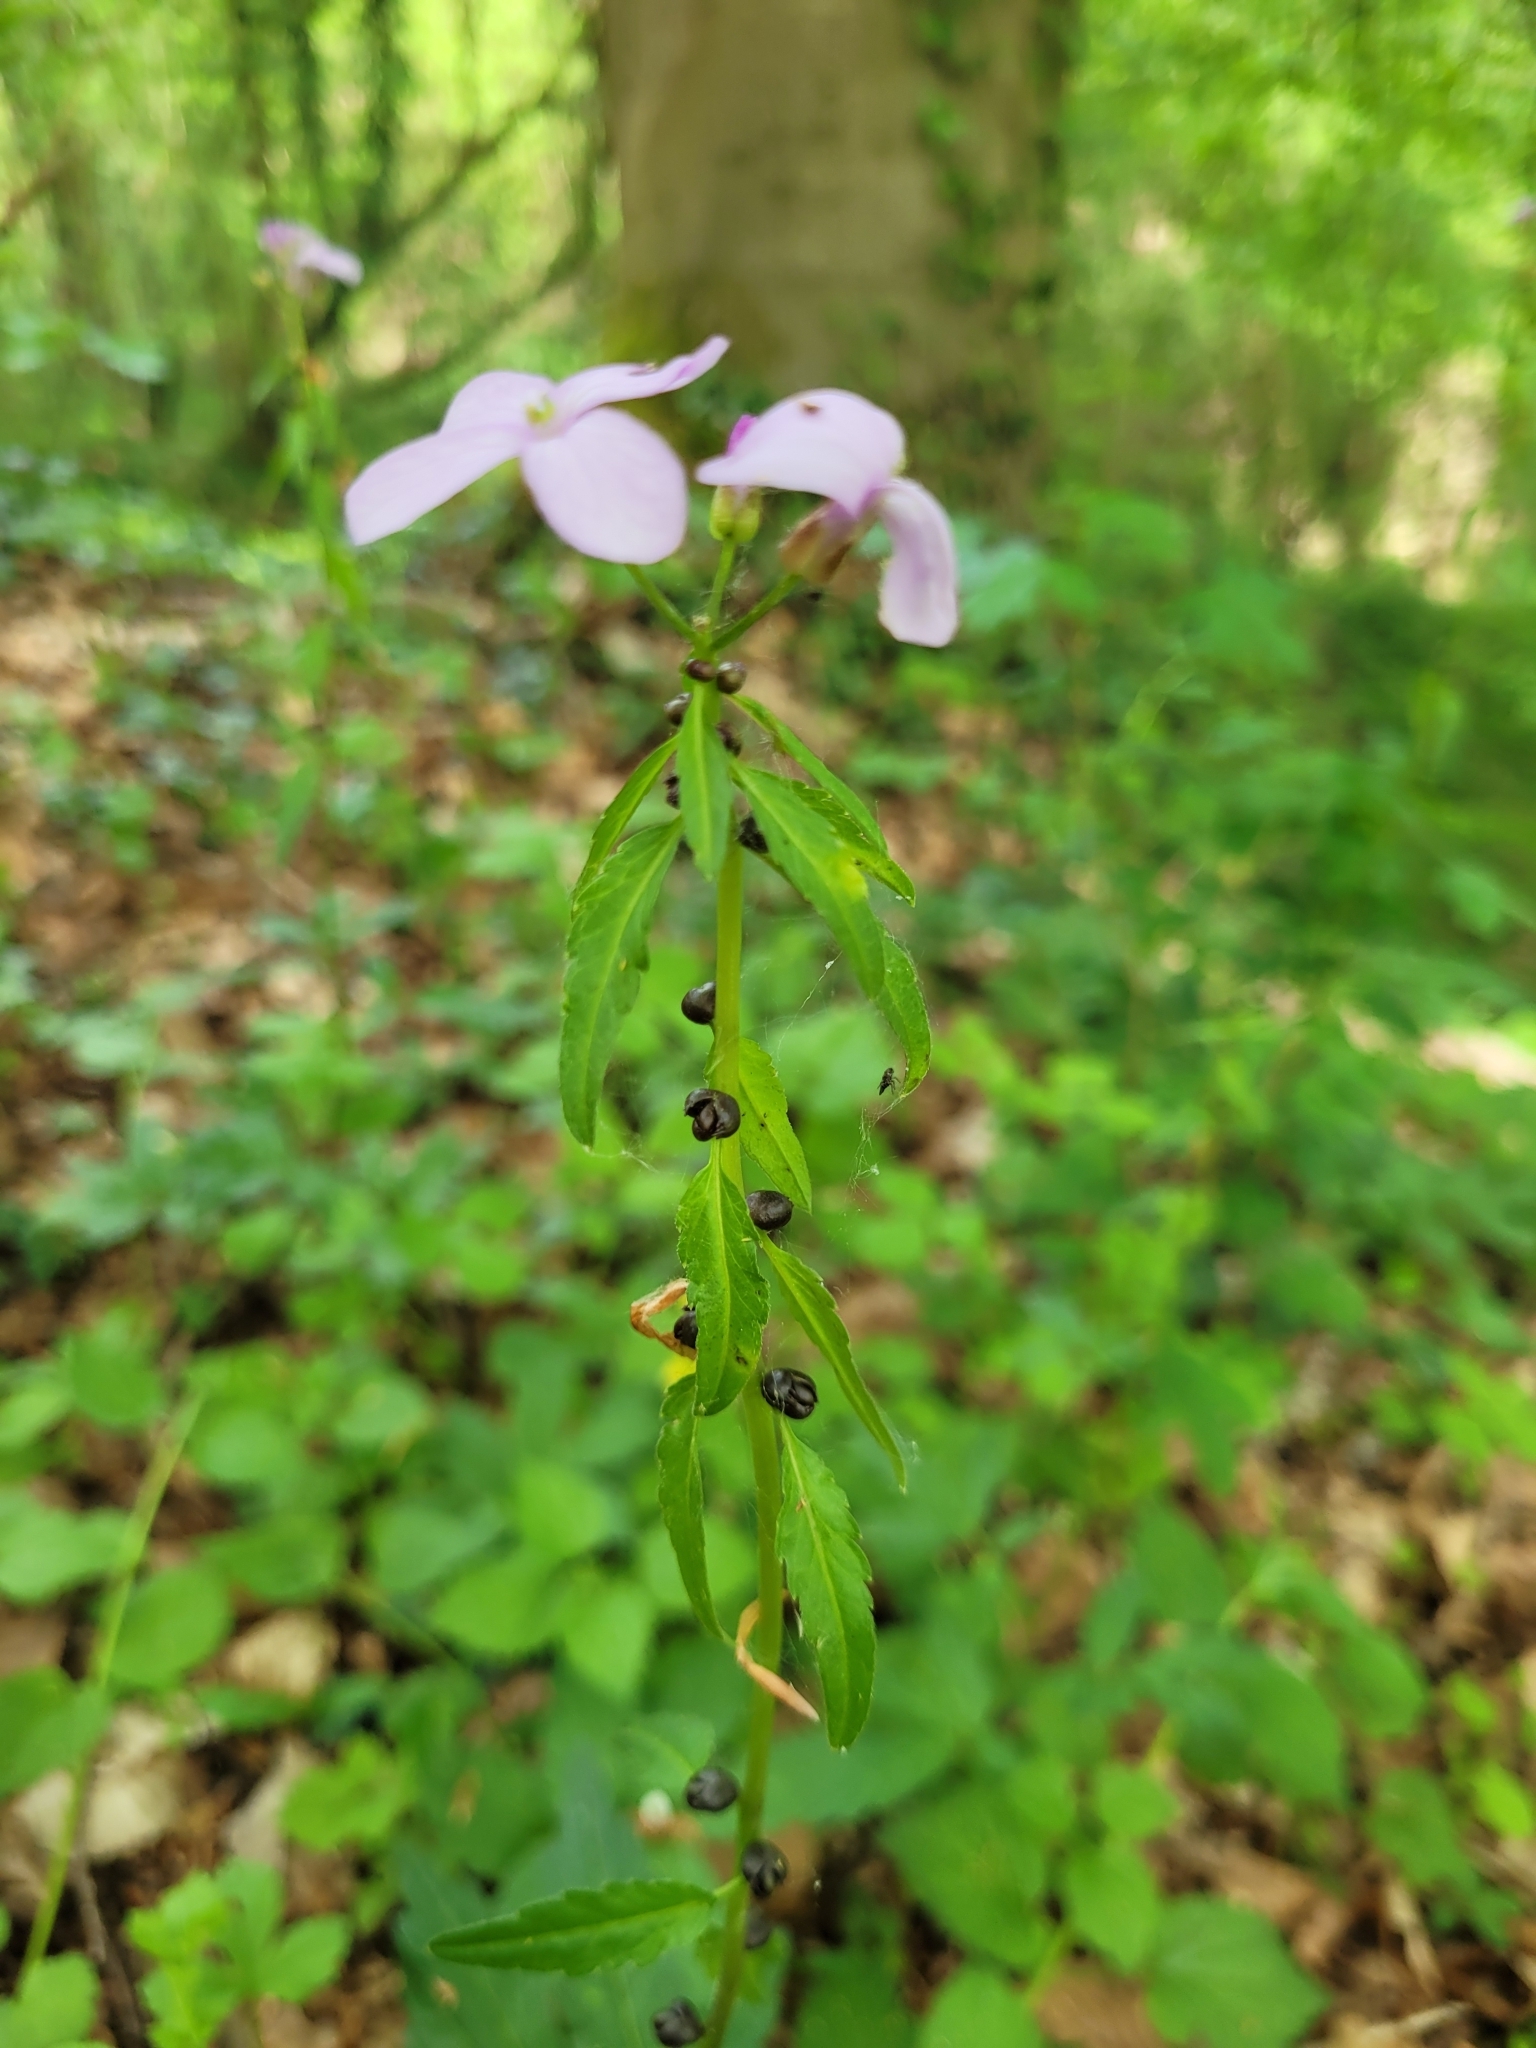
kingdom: Plantae
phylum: Tracheophyta
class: Magnoliopsida
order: Brassicales
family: Brassicaceae
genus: Cardamine
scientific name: Cardamine bulbifera
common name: Coralroot bittercress
